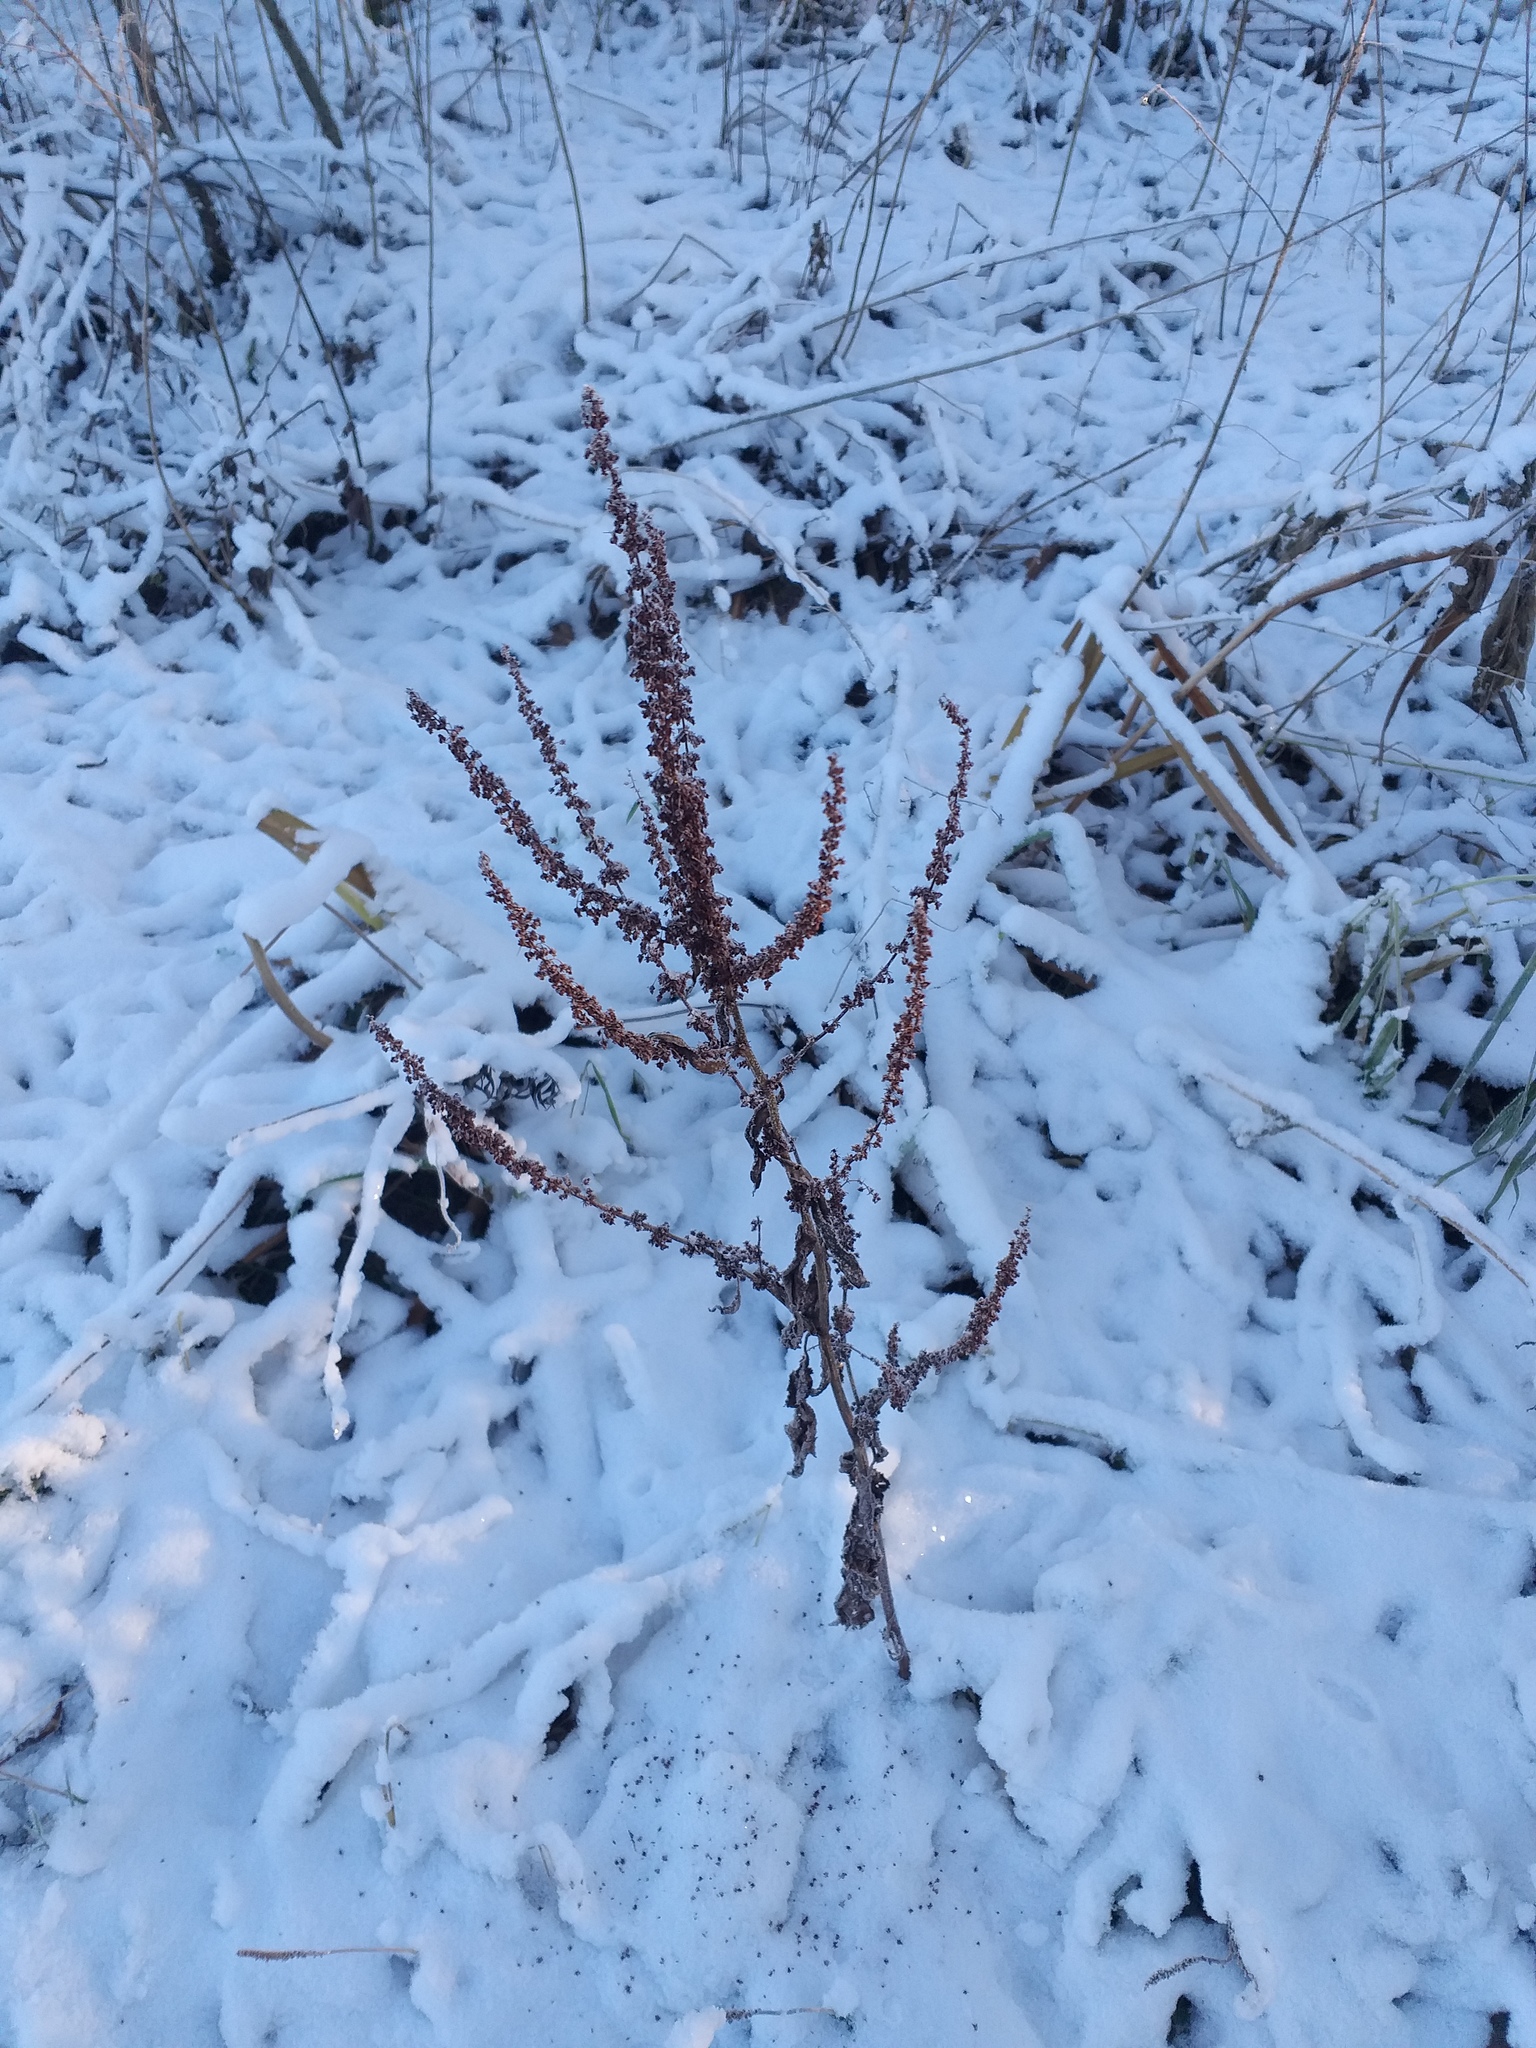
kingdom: Plantae
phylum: Tracheophyta
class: Magnoliopsida
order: Caryophyllales
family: Polygonaceae
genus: Rumex
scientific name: Rumex obtusifolius
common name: Bitter dock
